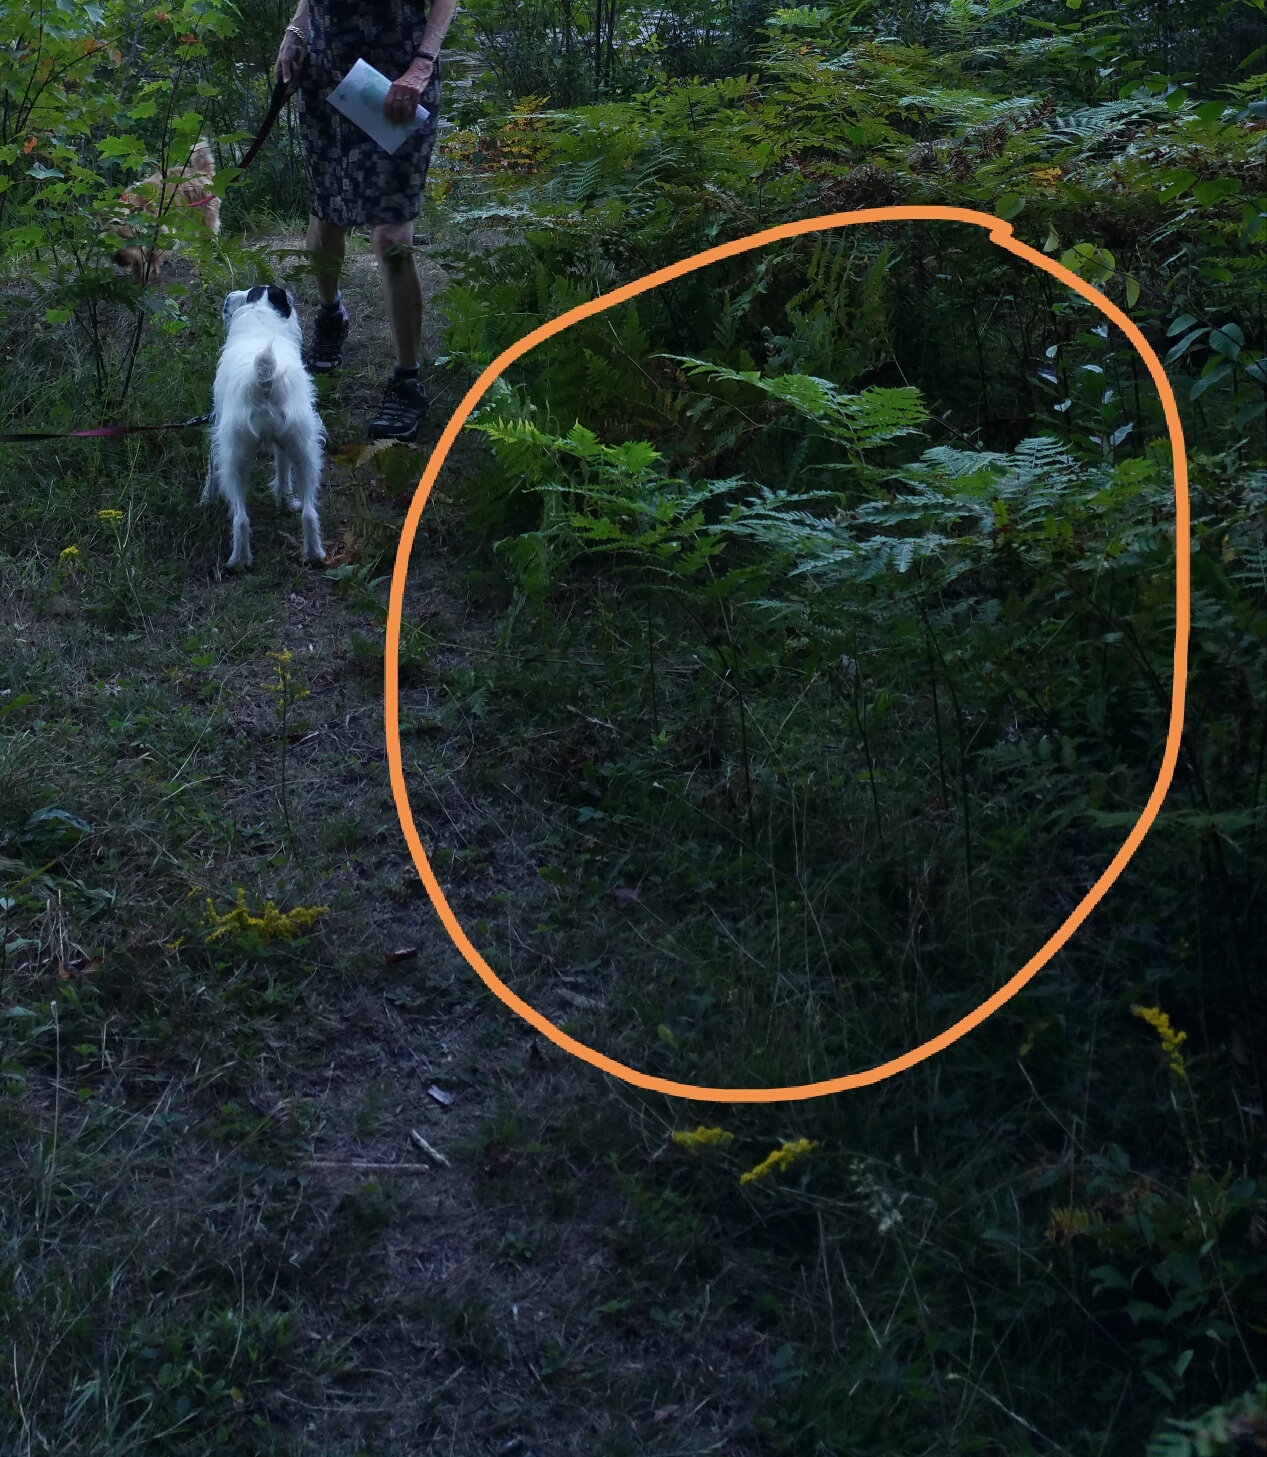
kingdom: Plantae
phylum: Tracheophyta
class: Polypodiopsida
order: Polypodiales
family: Dennstaedtiaceae
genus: Pteridium
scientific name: Pteridium aquilinum
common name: Bracken
